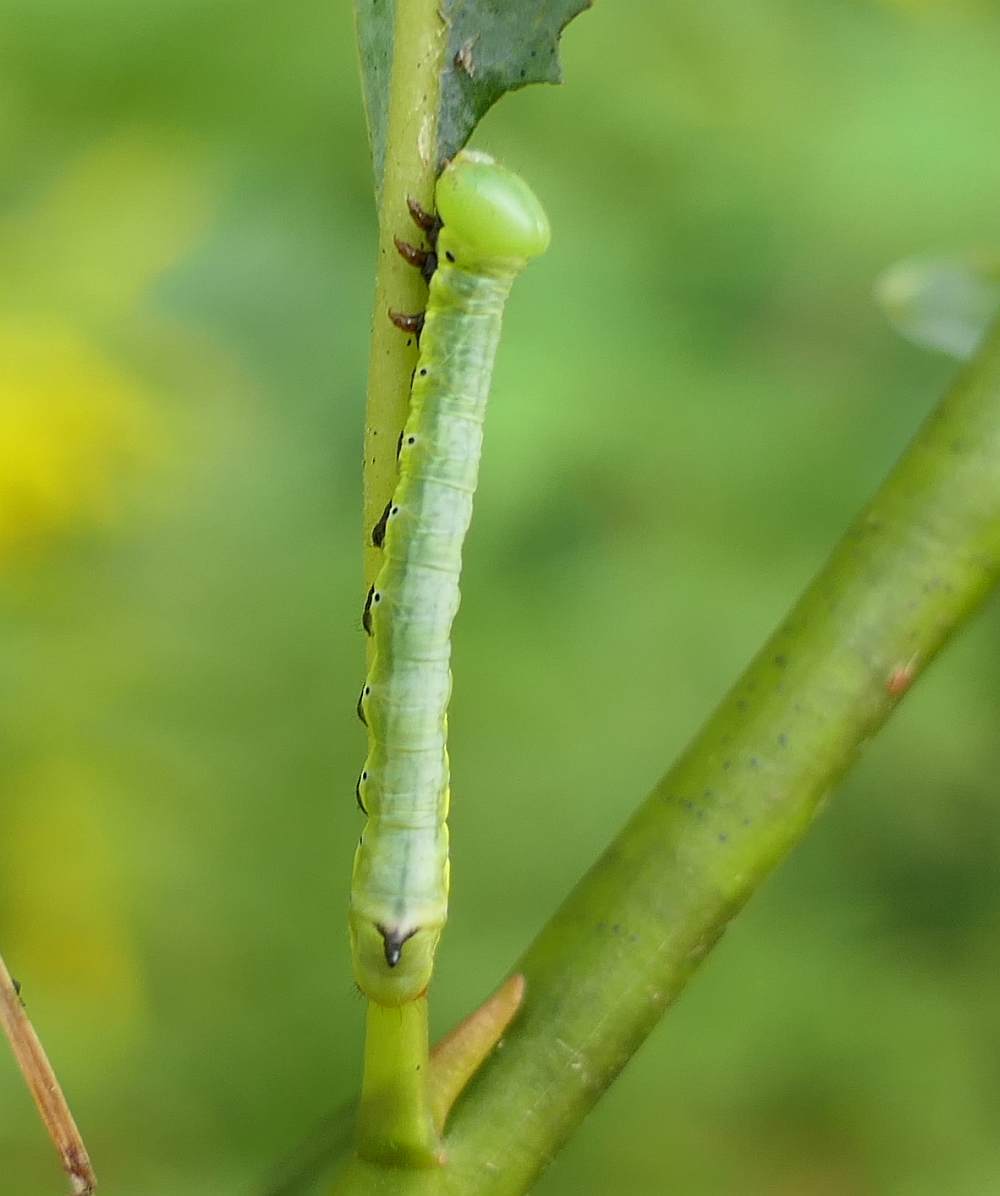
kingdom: Animalia
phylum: Arthropoda
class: Insecta
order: Lepidoptera
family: Notodontidae
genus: Pheosia
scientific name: Pheosia rimosa
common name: Black-rimmed prominent
